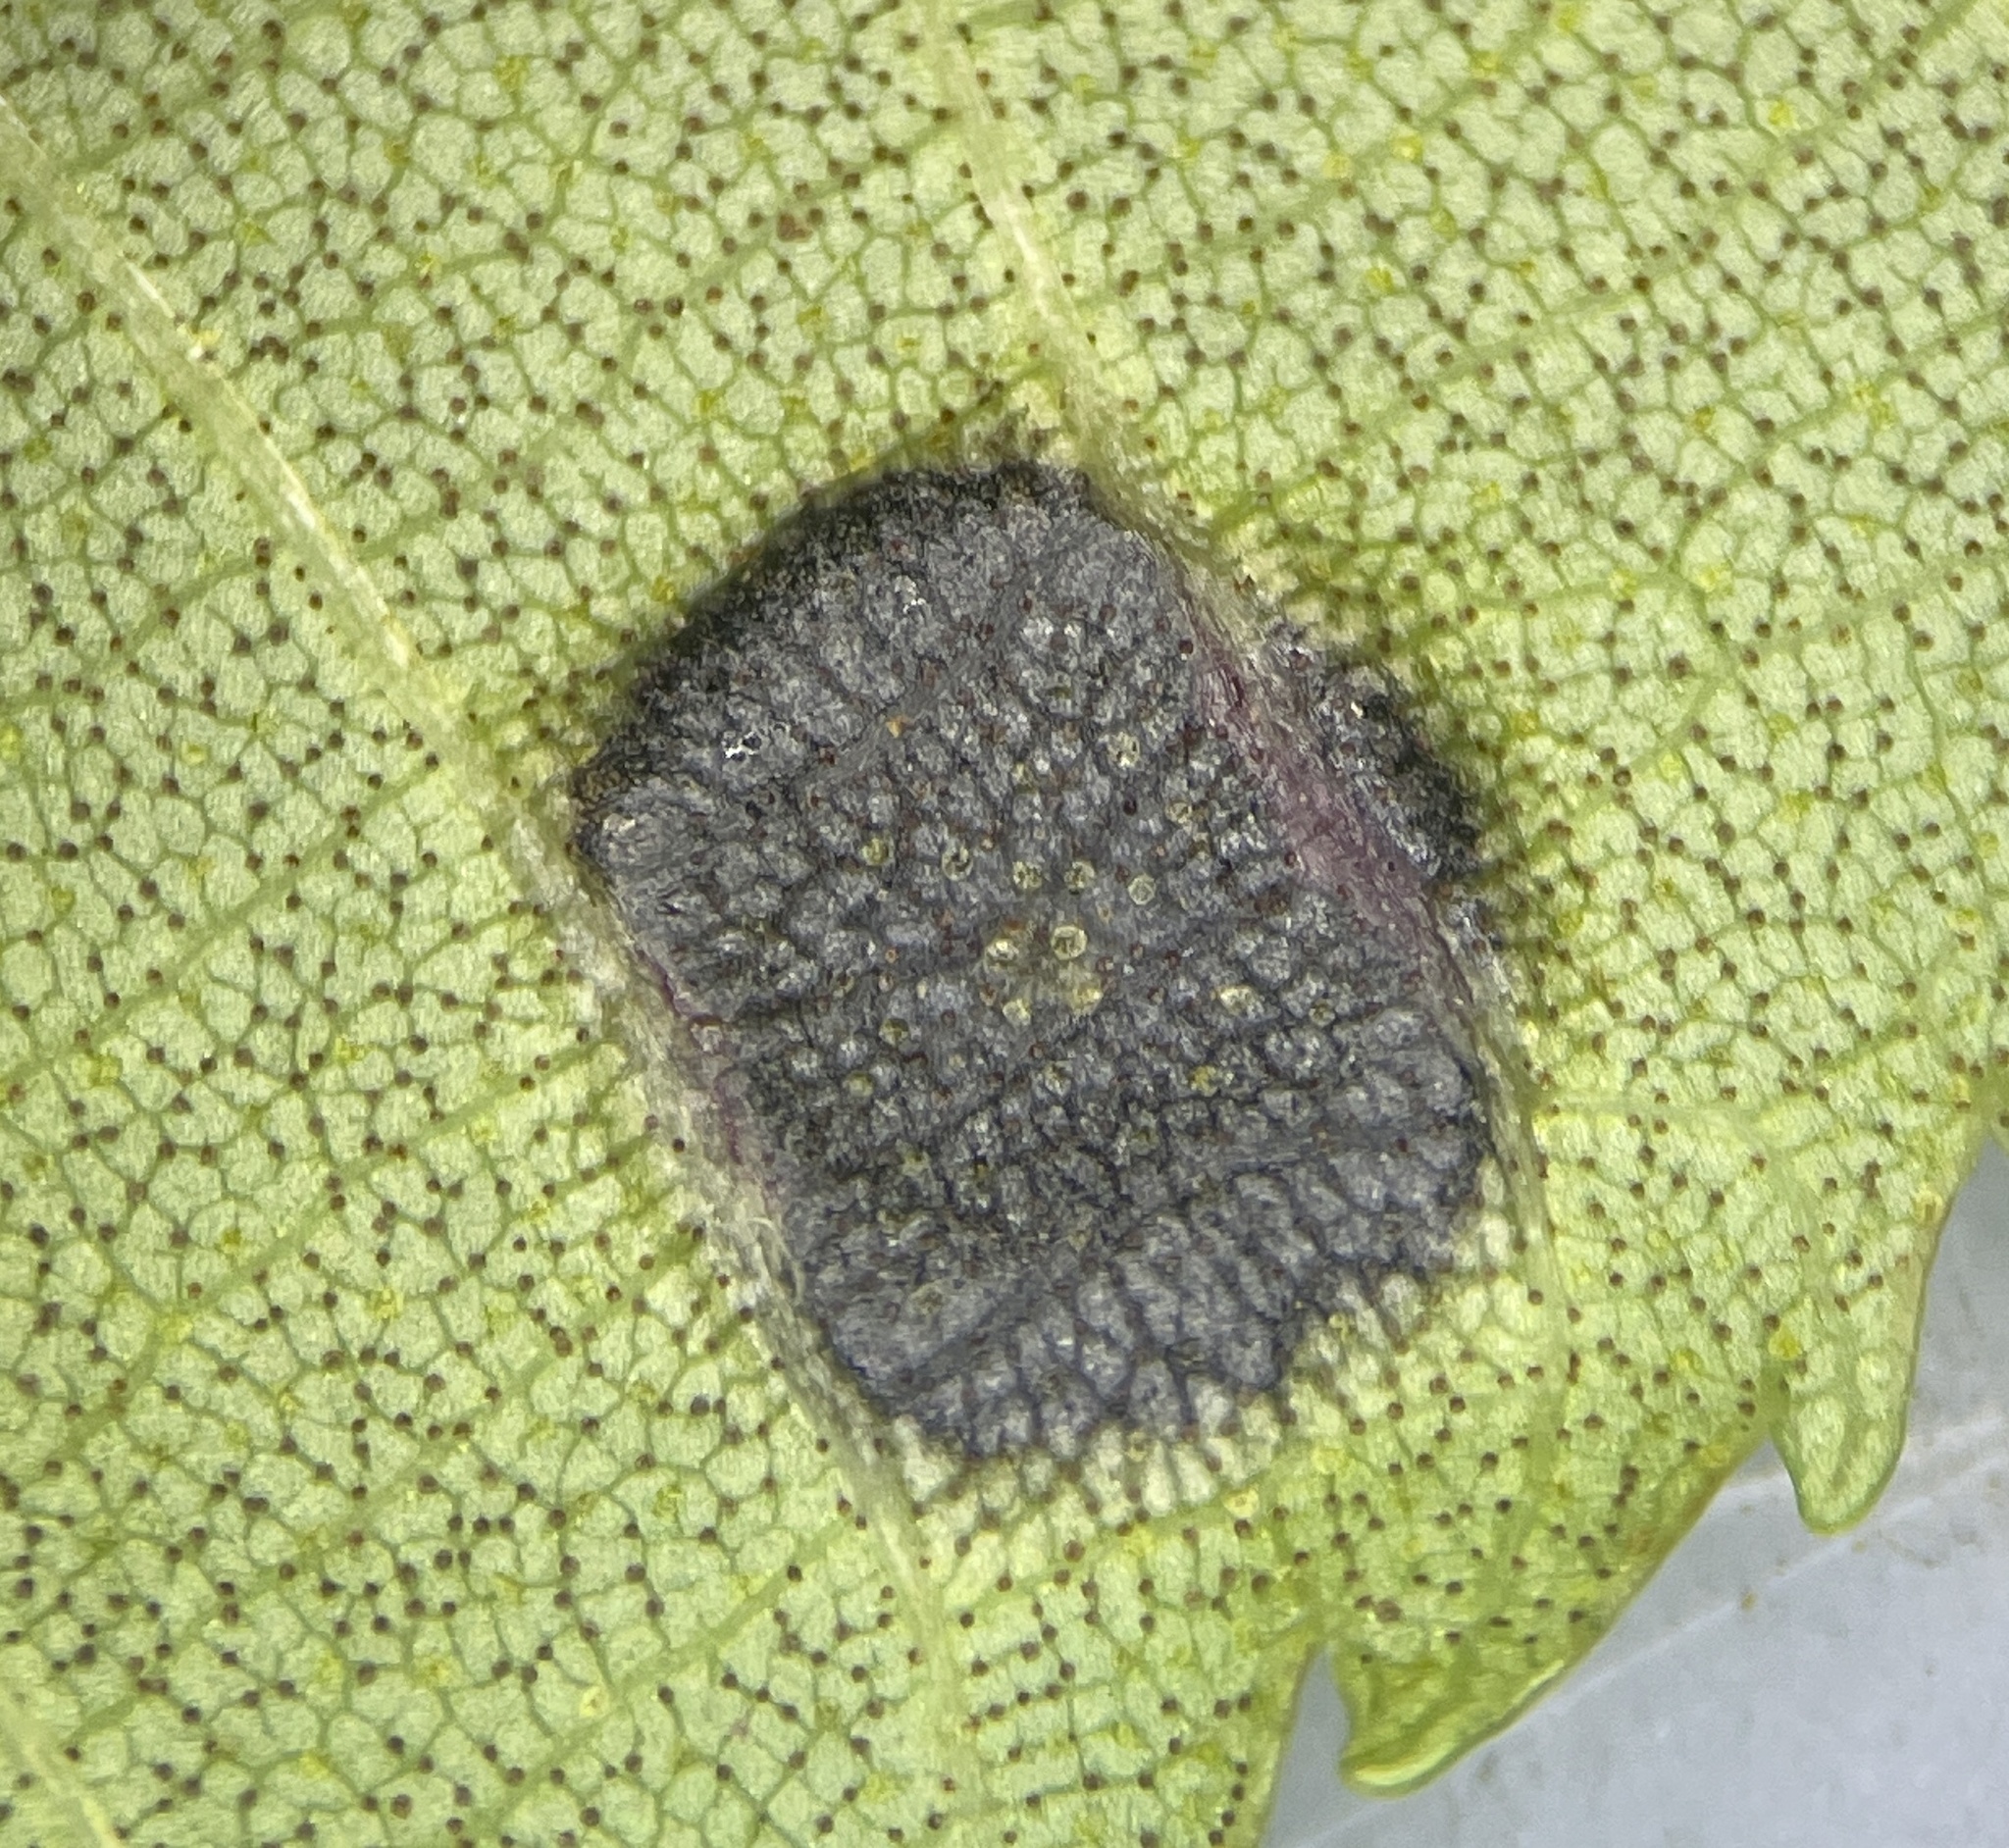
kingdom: Animalia
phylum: Arthropoda
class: Insecta
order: Diptera
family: Cecidomyiidae
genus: Gliaspilota
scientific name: Gliaspilota glutinosa
